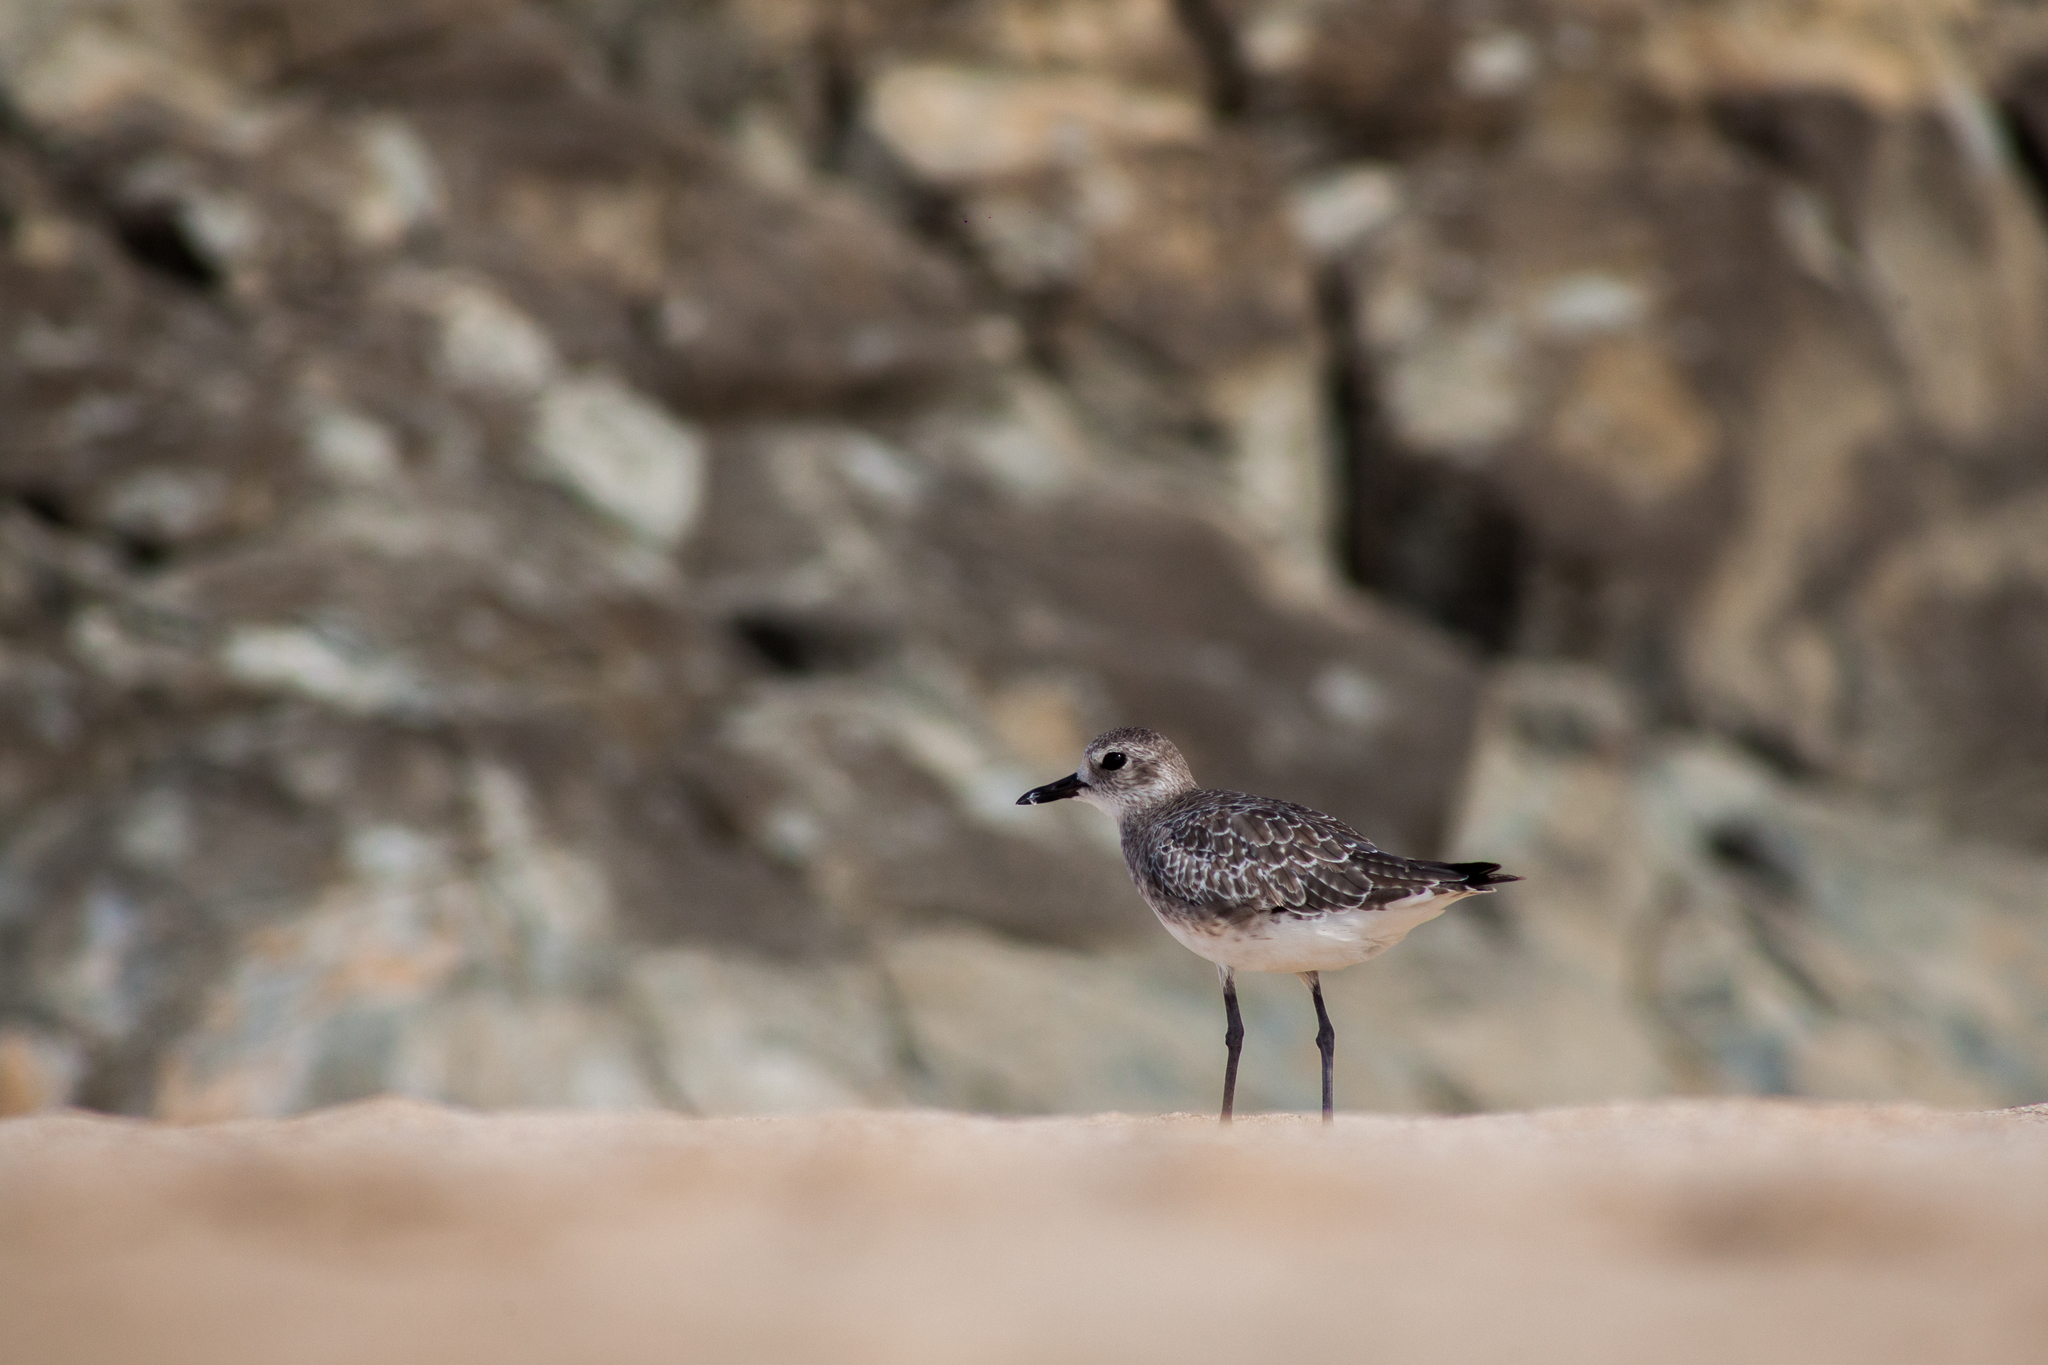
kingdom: Animalia
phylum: Chordata
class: Aves
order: Charadriiformes
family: Charadriidae
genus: Pluvialis
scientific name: Pluvialis squatarola
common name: Grey plover
